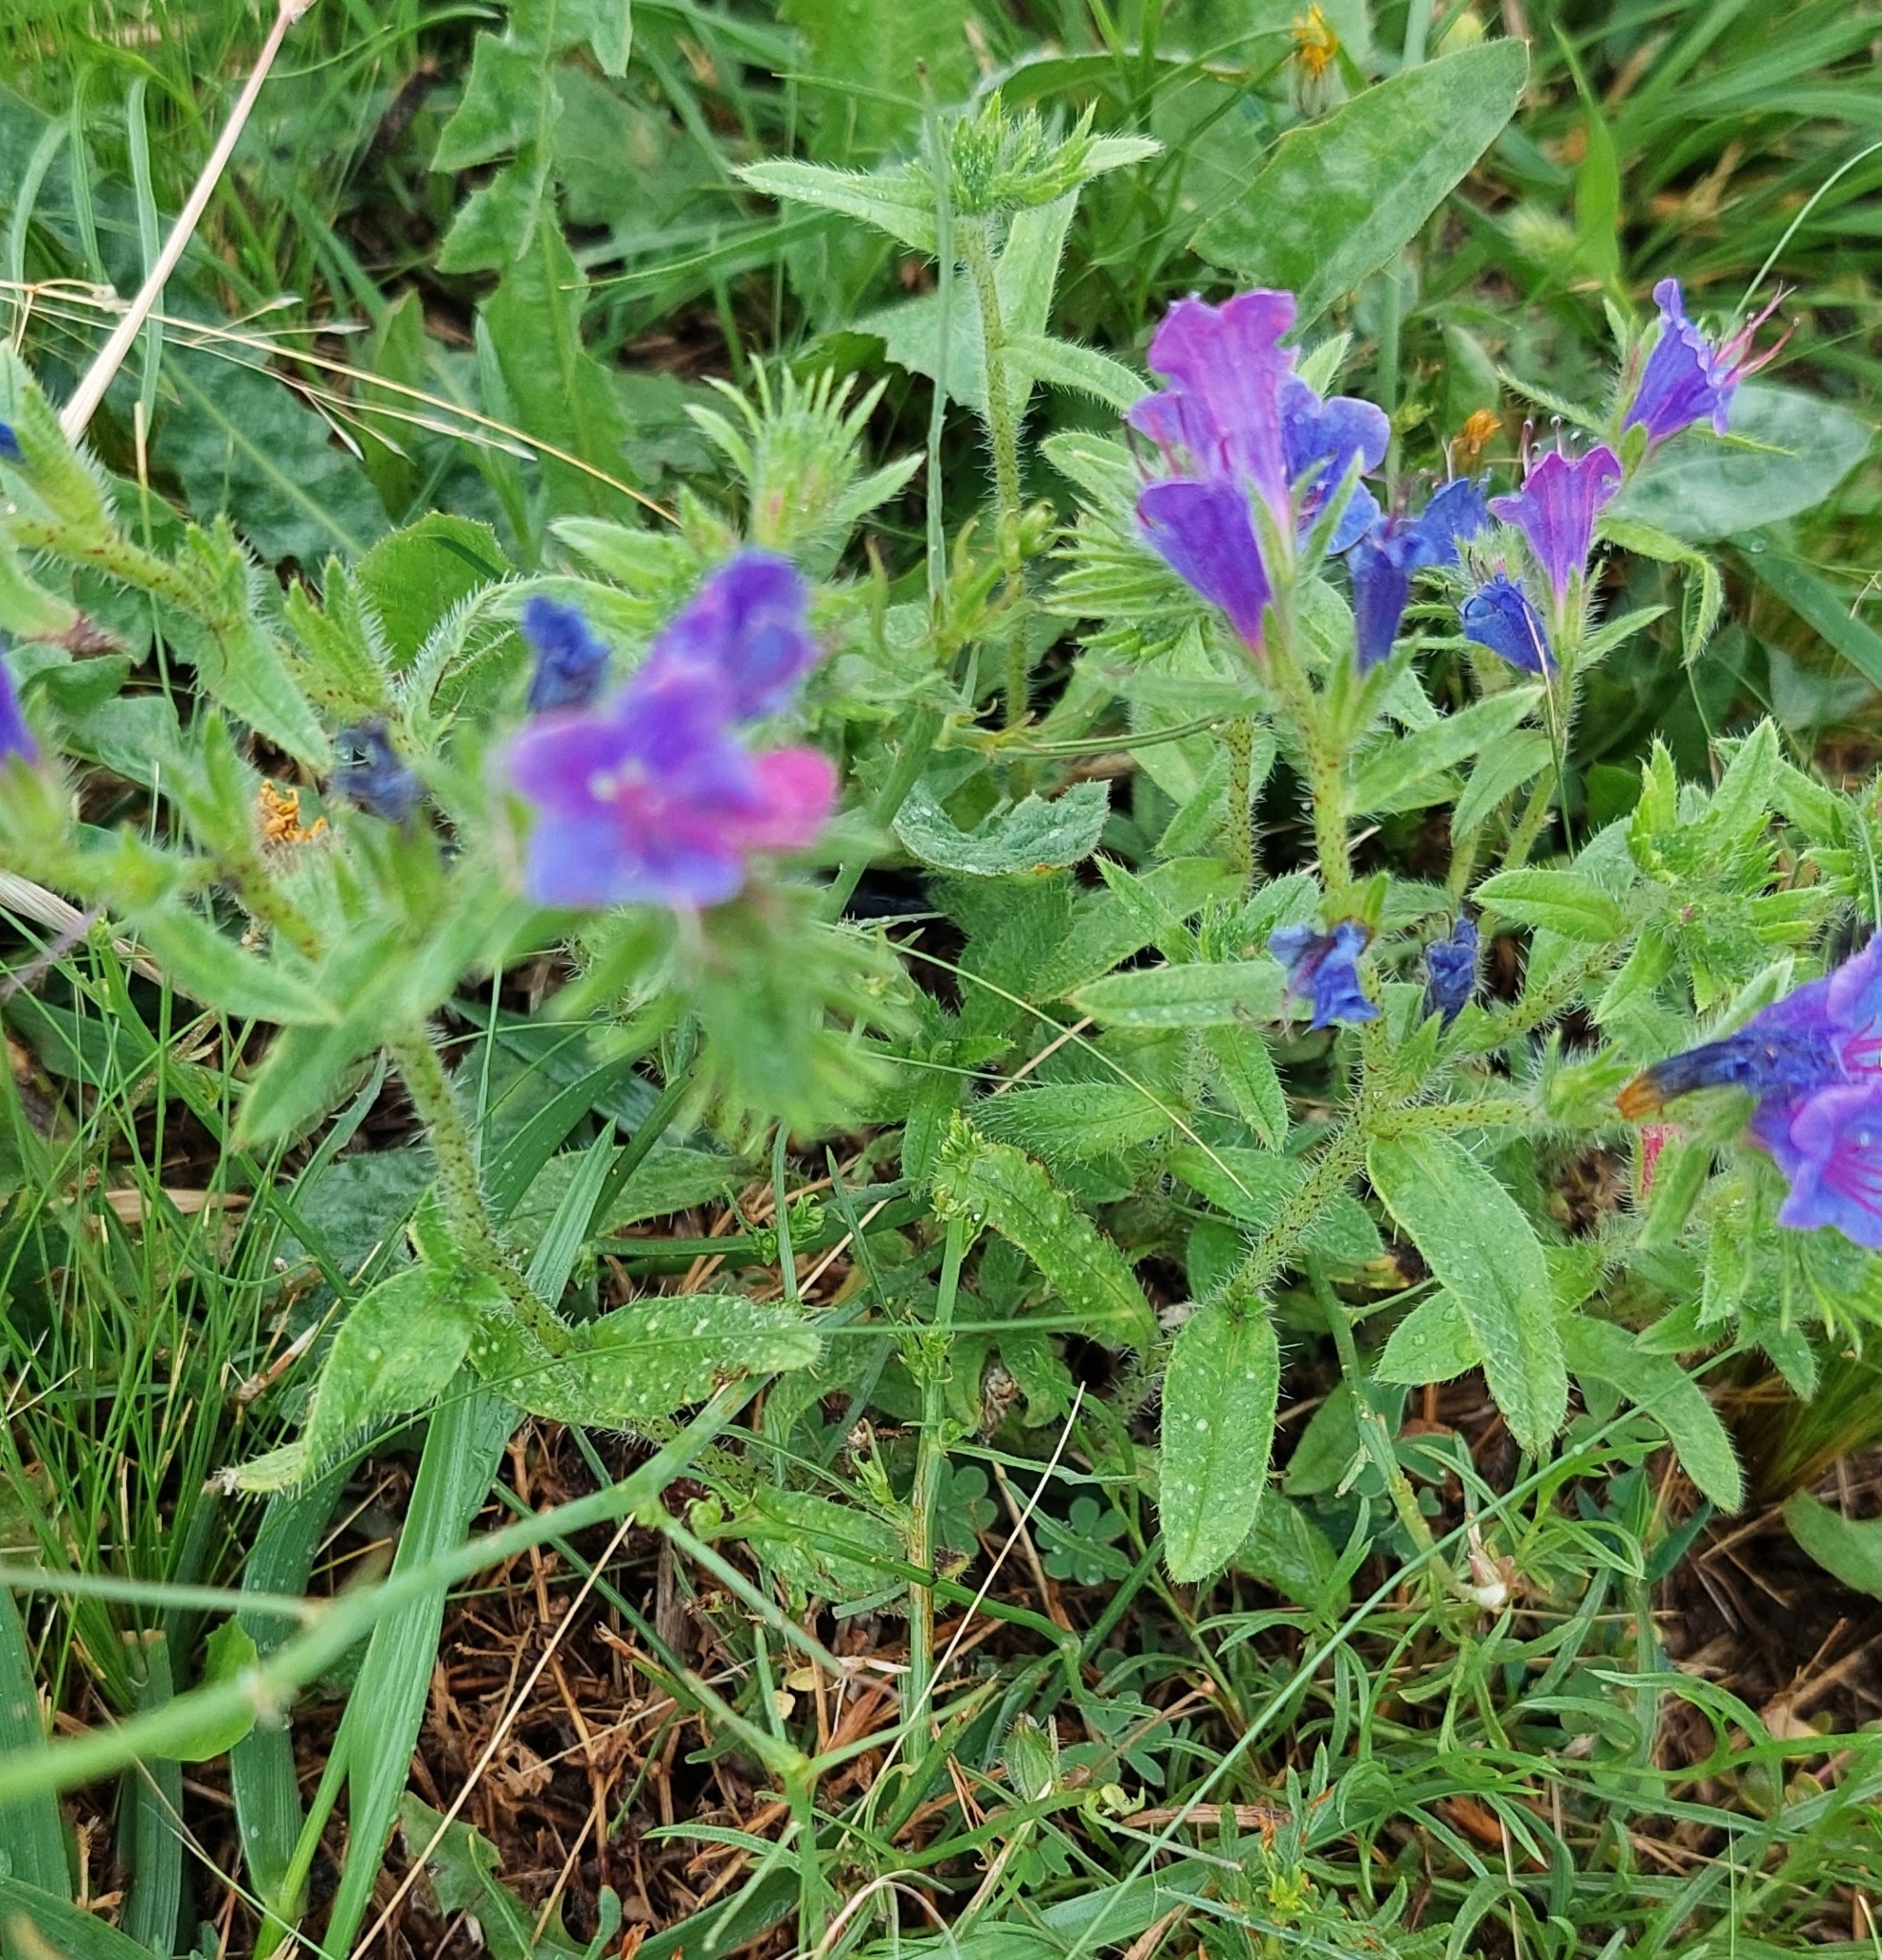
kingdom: Plantae
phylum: Tracheophyta
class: Magnoliopsida
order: Boraginales
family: Boraginaceae
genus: Echium
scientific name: Echium plantagineum
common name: Purple viper's-bugloss
